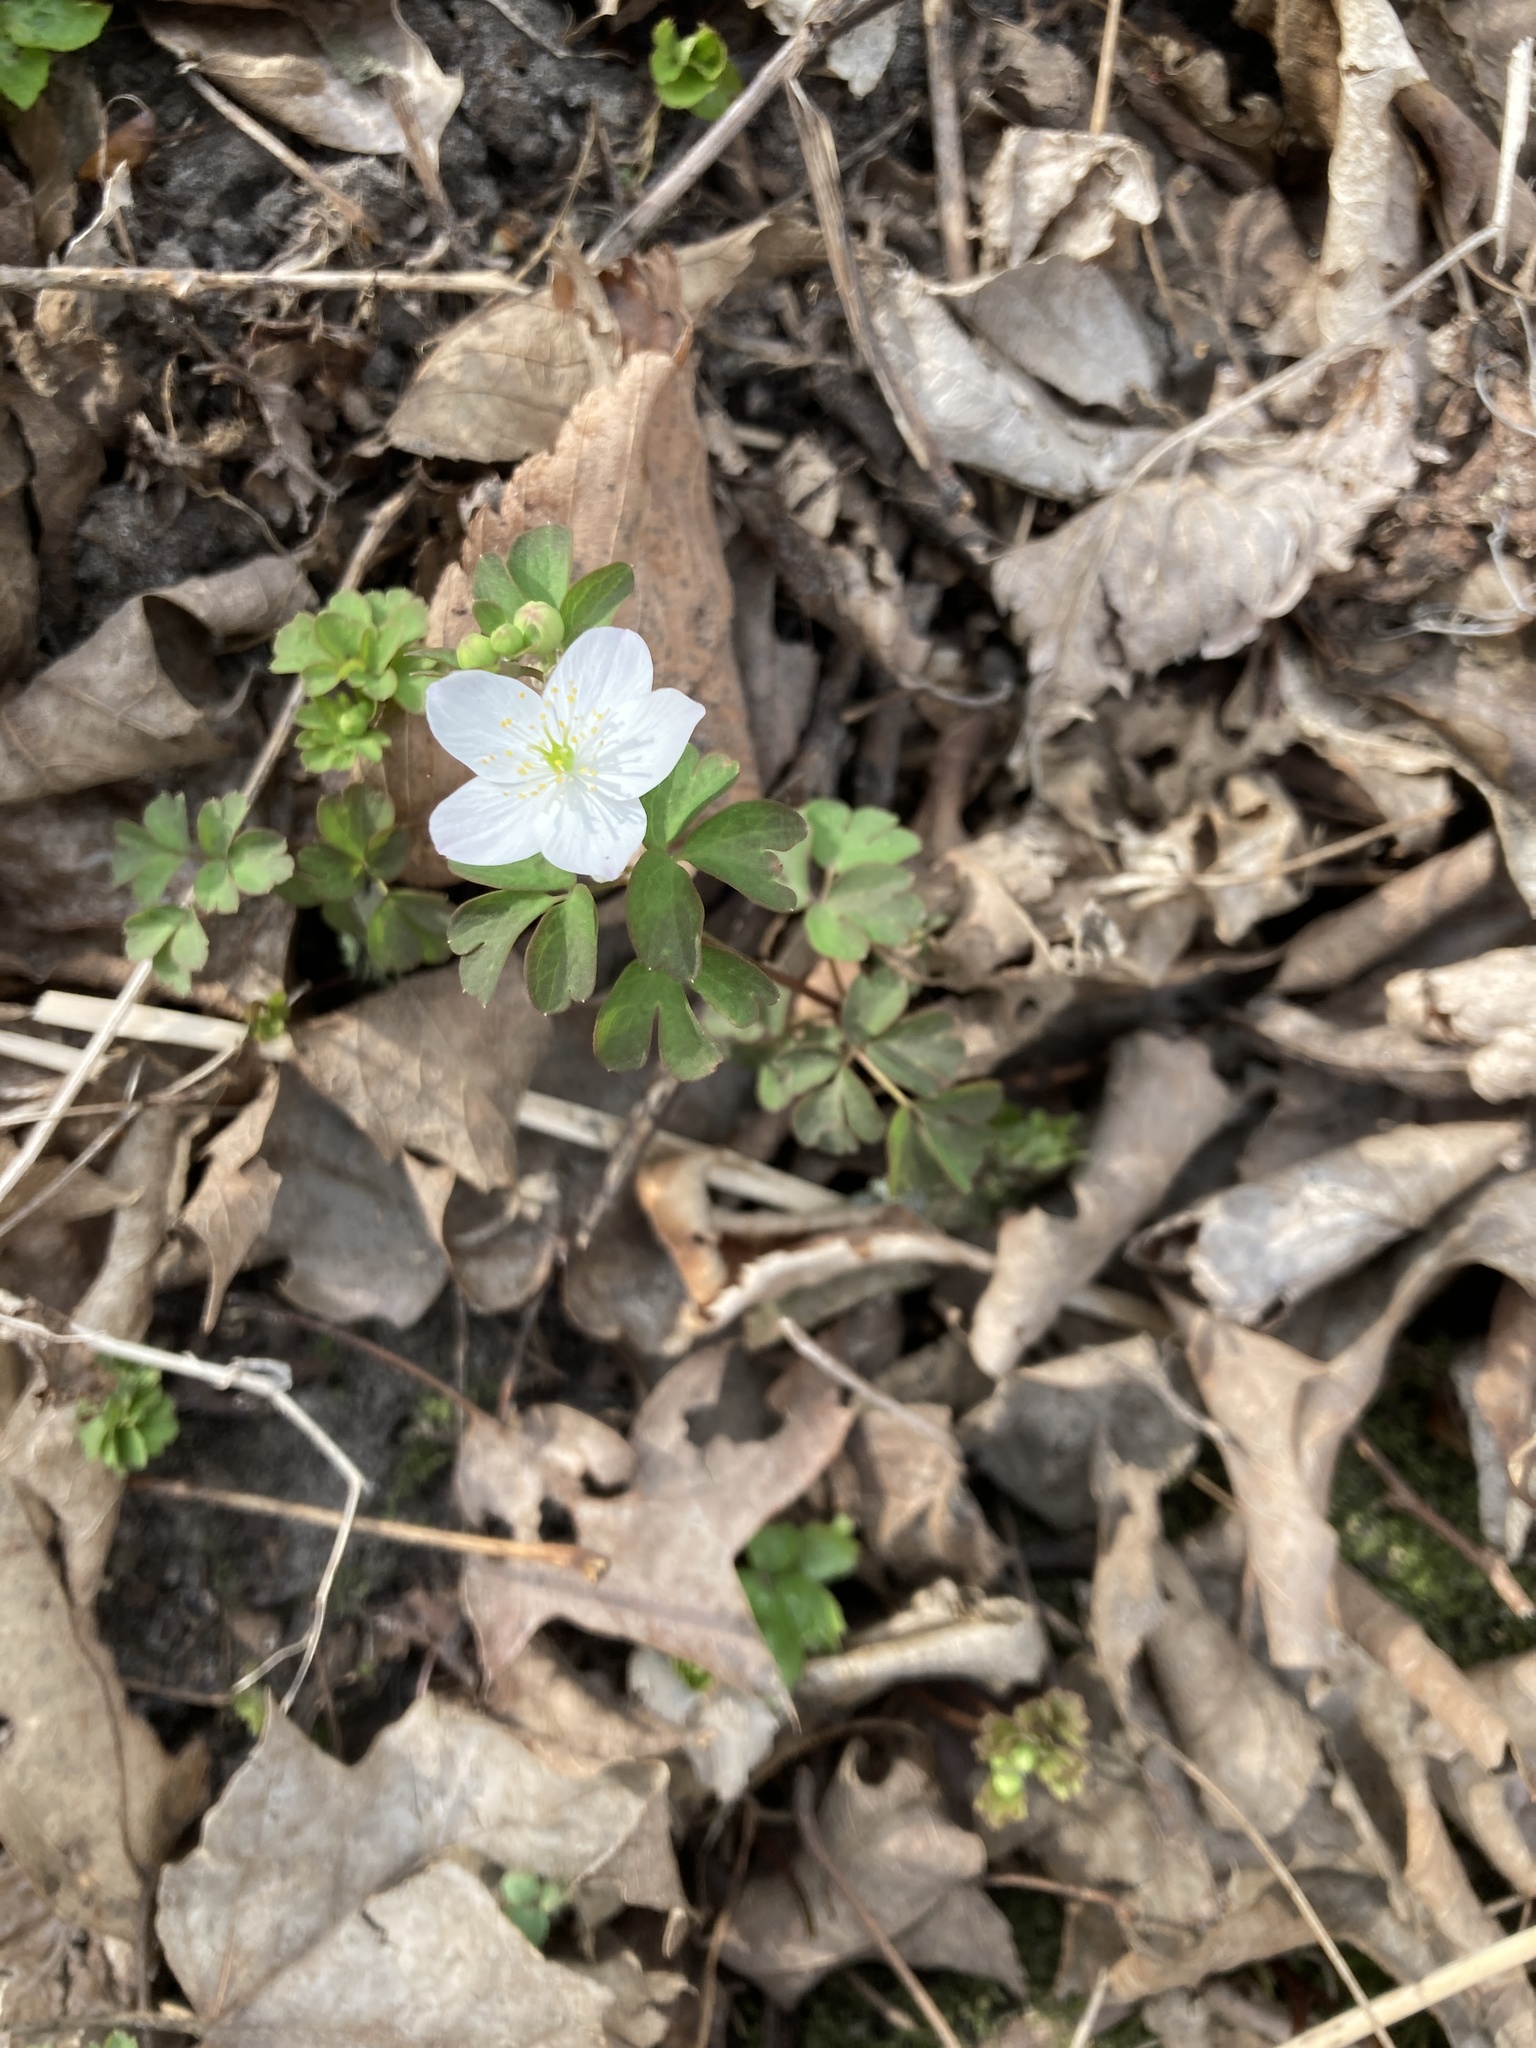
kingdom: Plantae
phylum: Tracheophyta
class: Magnoliopsida
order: Ranunculales
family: Ranunculaceae
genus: Enemion
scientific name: Enemion biternatum
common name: Eastern false rue-anemone
